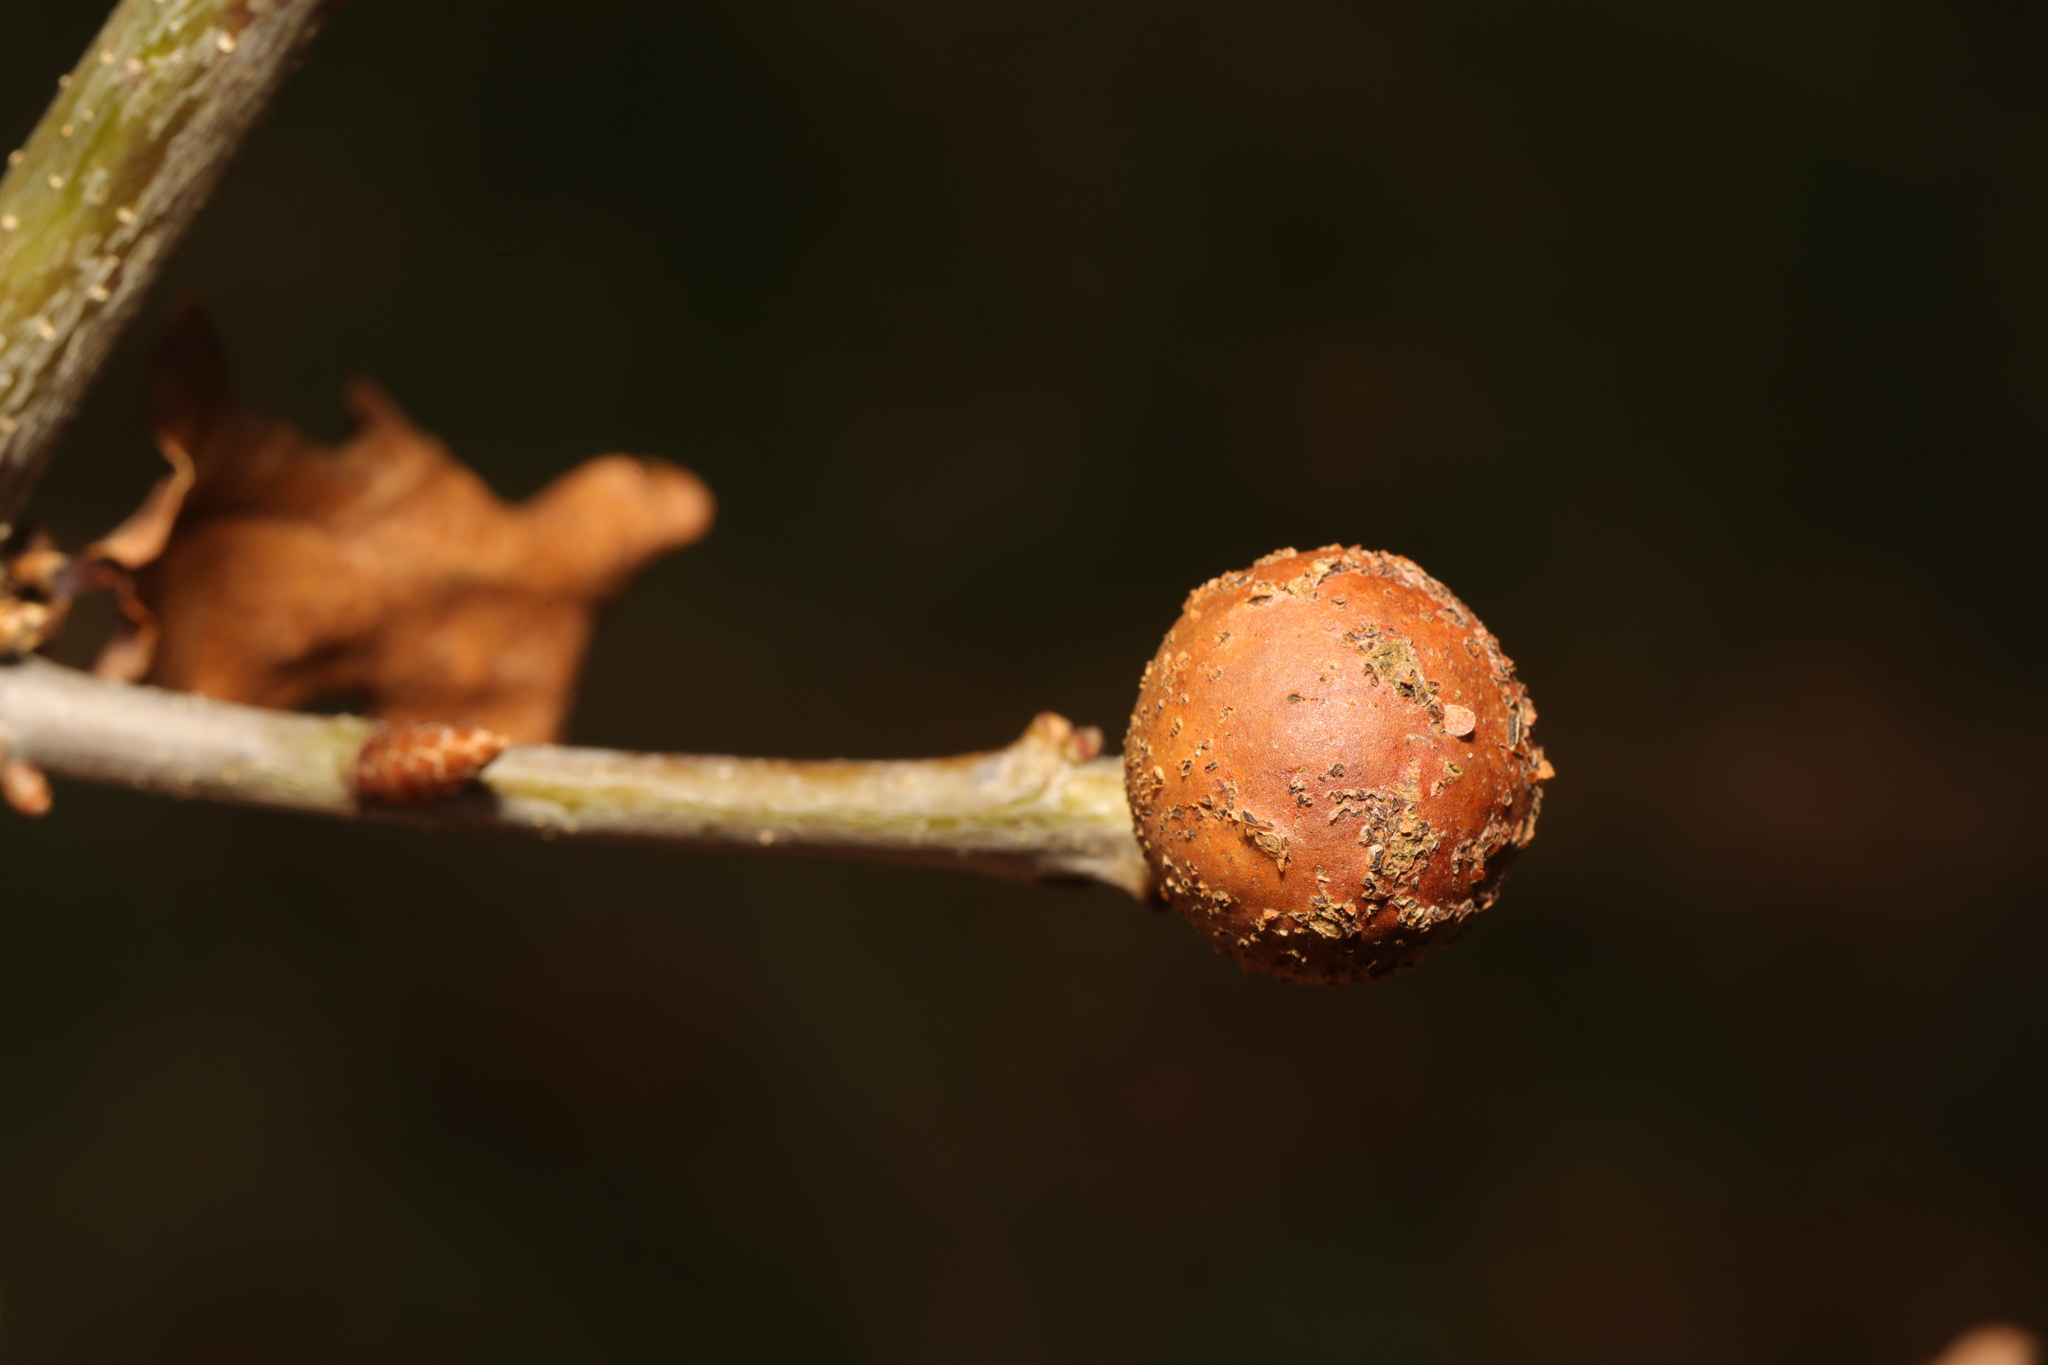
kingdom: Animalia
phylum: Arthropoda
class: Insecta
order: Hymenoptera
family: Cynipidae
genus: Andricus
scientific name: Andricus kollari
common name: Marble gall
